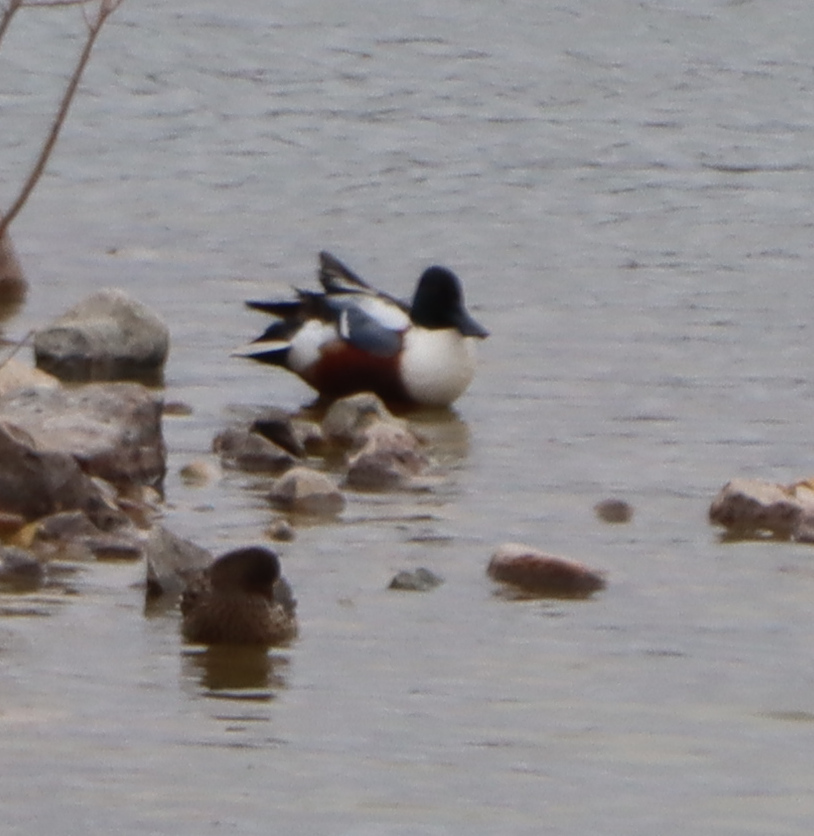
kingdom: Animalia
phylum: Chordata
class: Aves
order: Anseriformes
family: Anatidae
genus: Spatula
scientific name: Spatula clypeata
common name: Northern shoveler
